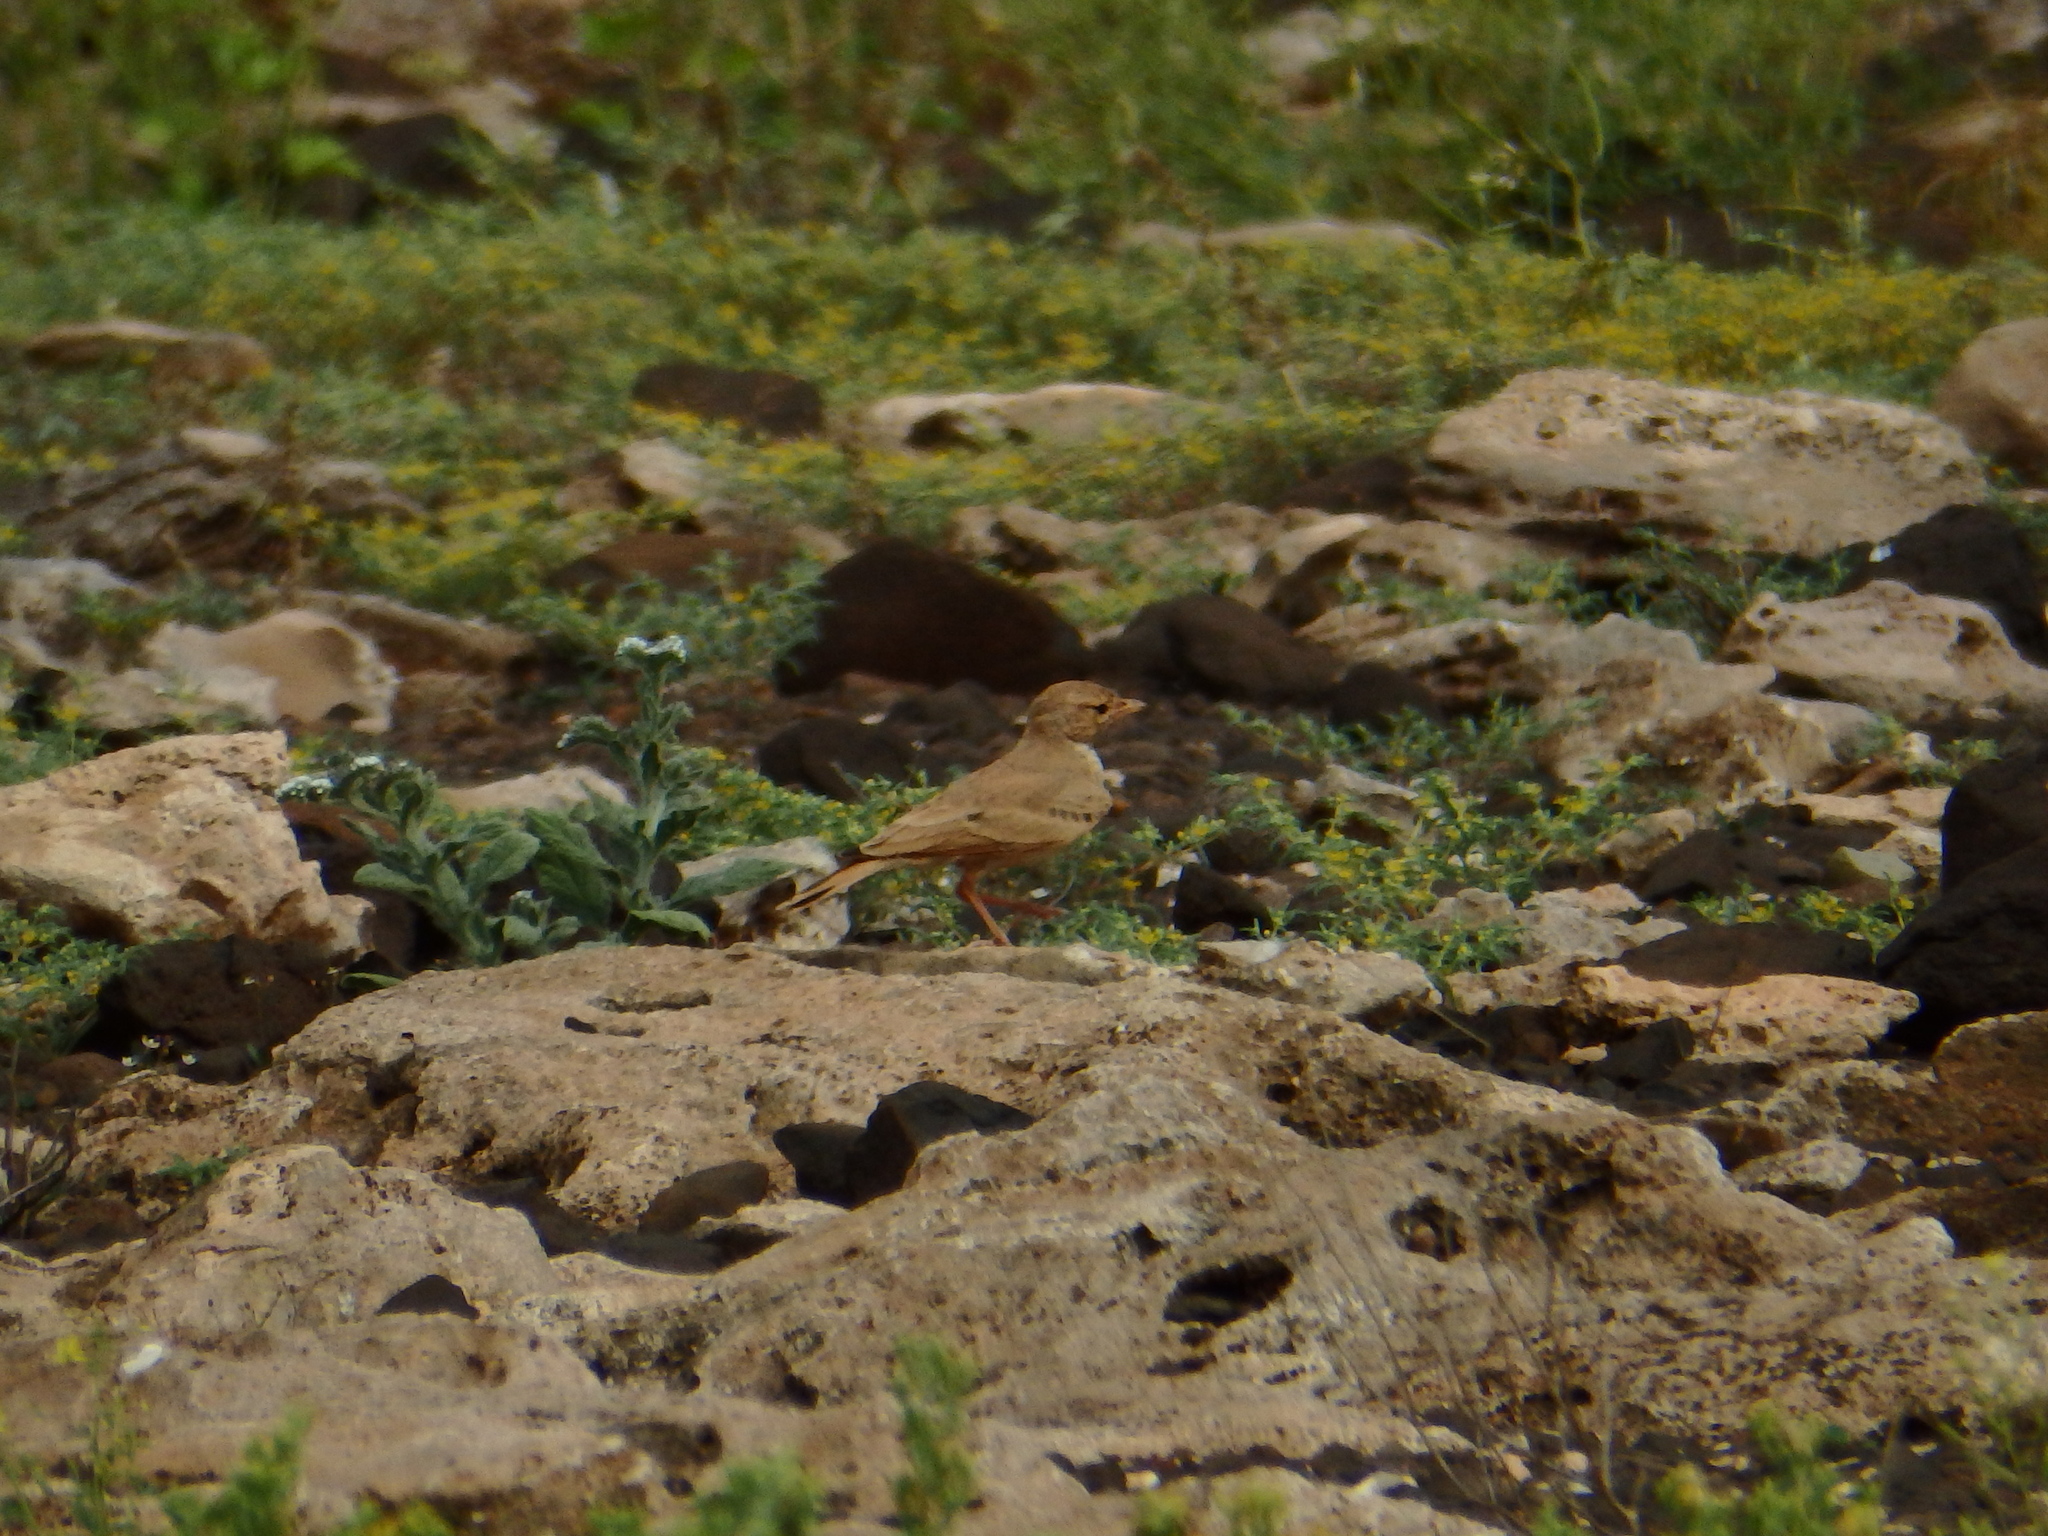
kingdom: Animalia
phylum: Chordata
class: Aves
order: Passeriformes
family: Alaudidae
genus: Ammomanes
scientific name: Ammomanes cinctura
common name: Bar-tailed lark
